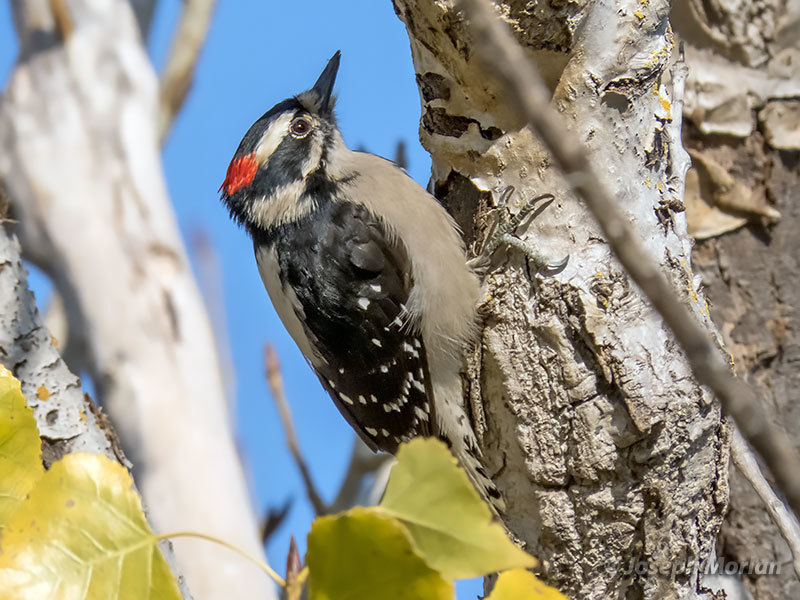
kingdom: Animalia
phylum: Chordata
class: Aves
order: Piciformes
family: Picidae
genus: Dryobates
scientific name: Dryobates pubescens
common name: Downy woodpecker
